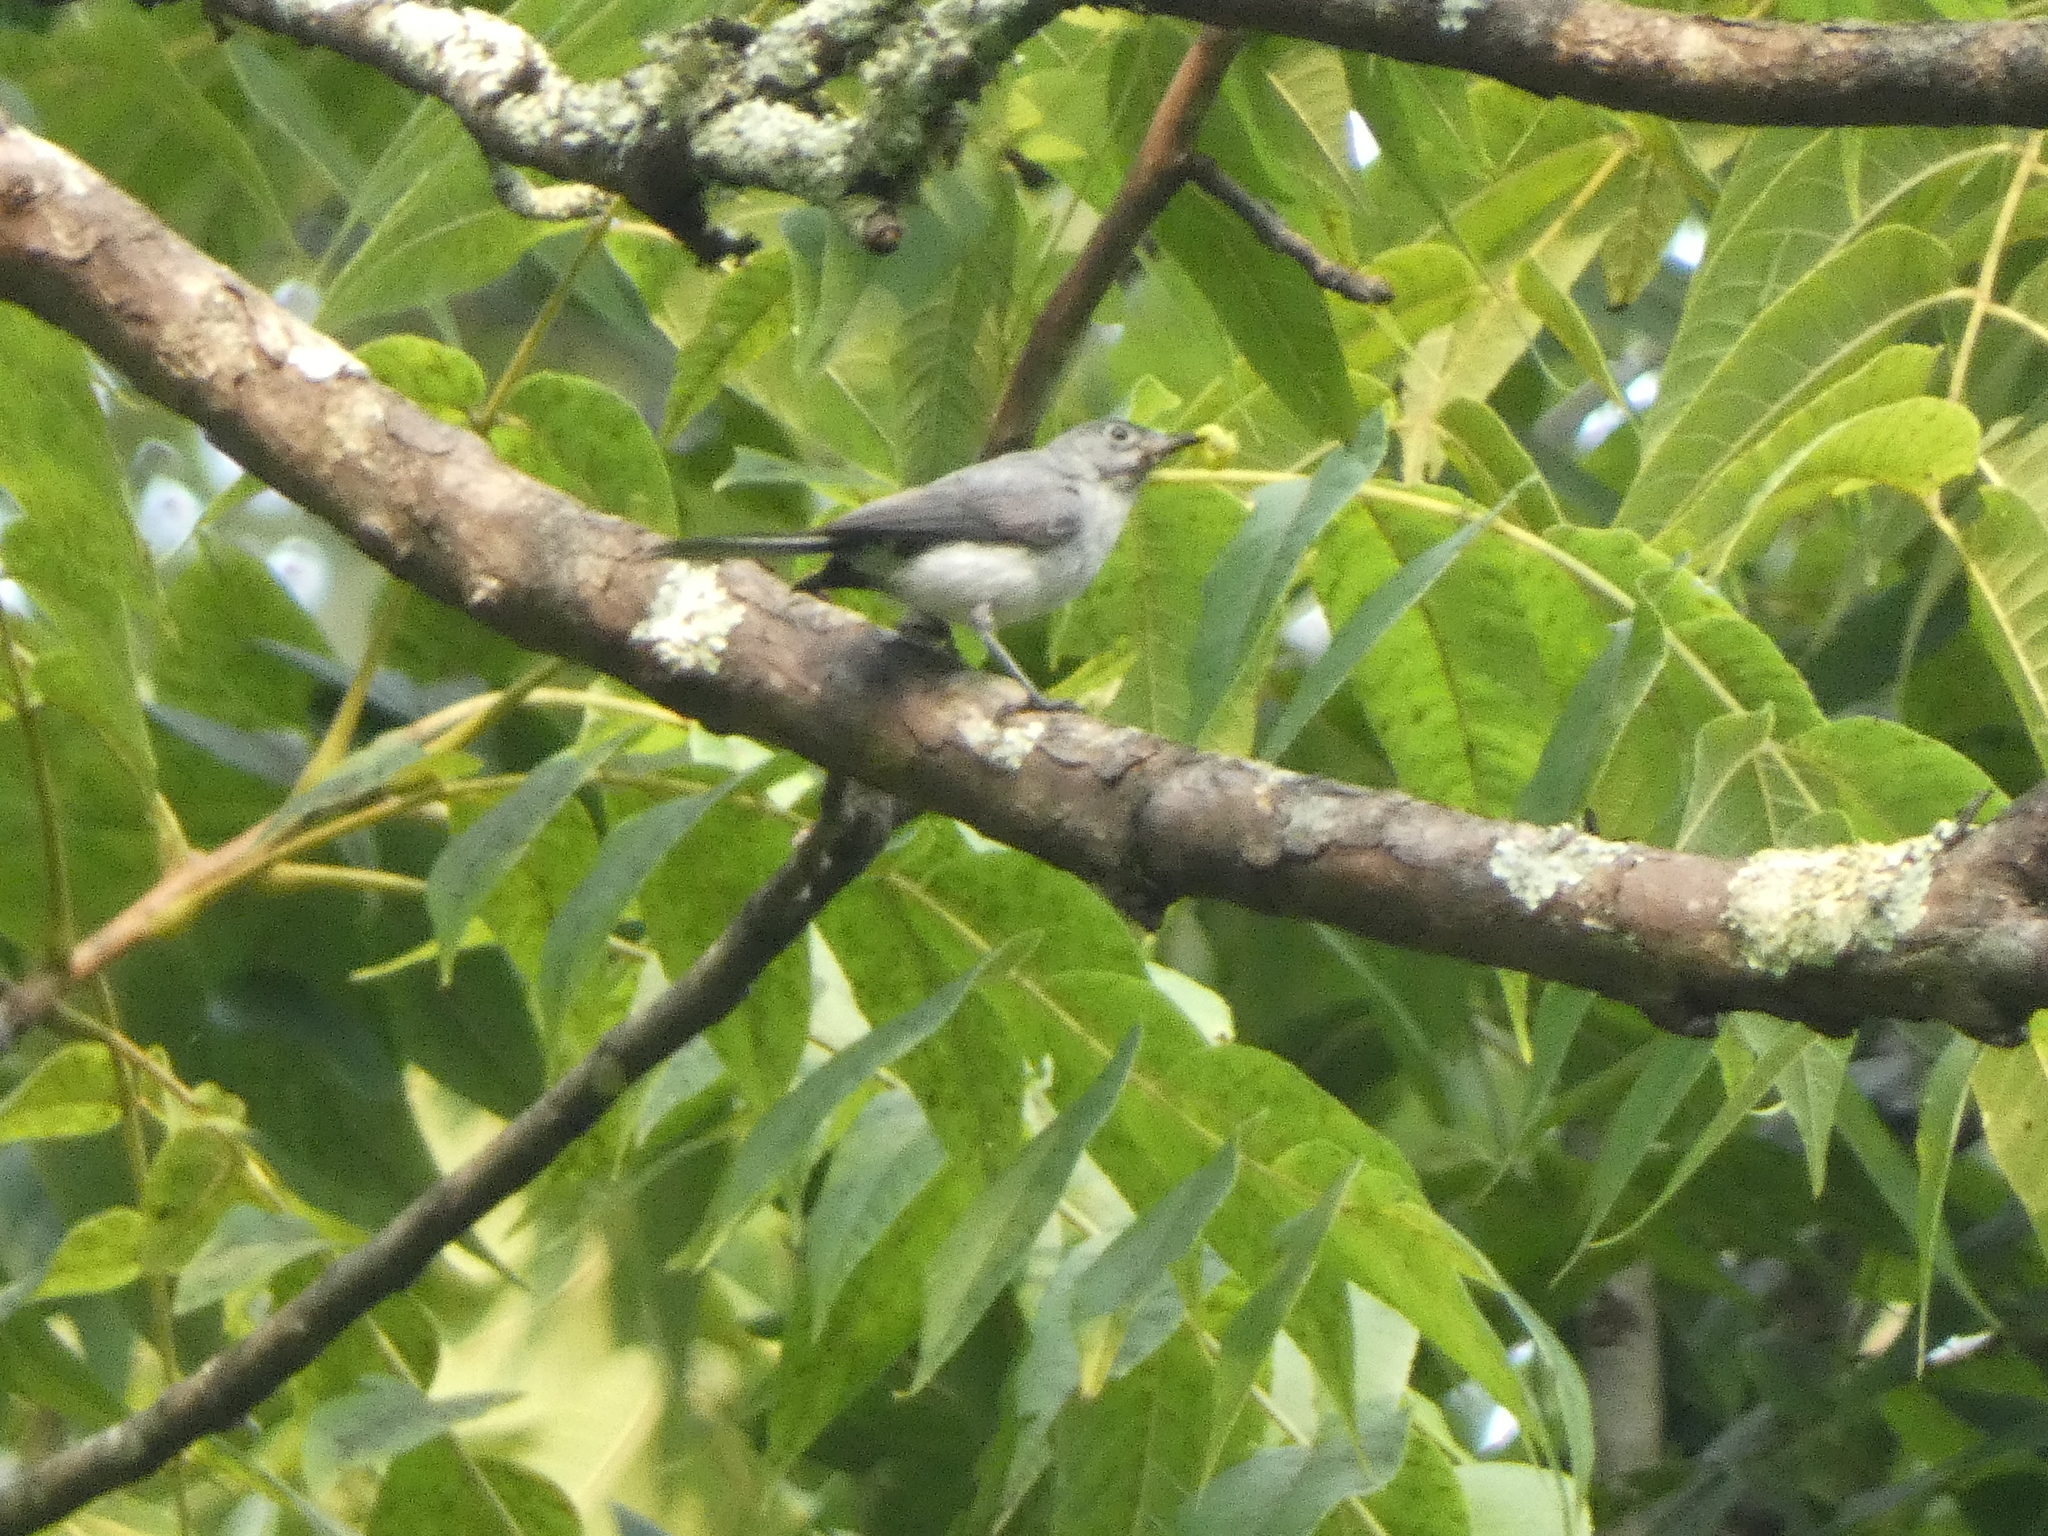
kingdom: Animalia
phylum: Chordata
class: Aves
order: Passeriformes
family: Polioptilidae
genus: Polioptila
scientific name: Polioptila caerulea
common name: Blue-gray gnatcatcher
